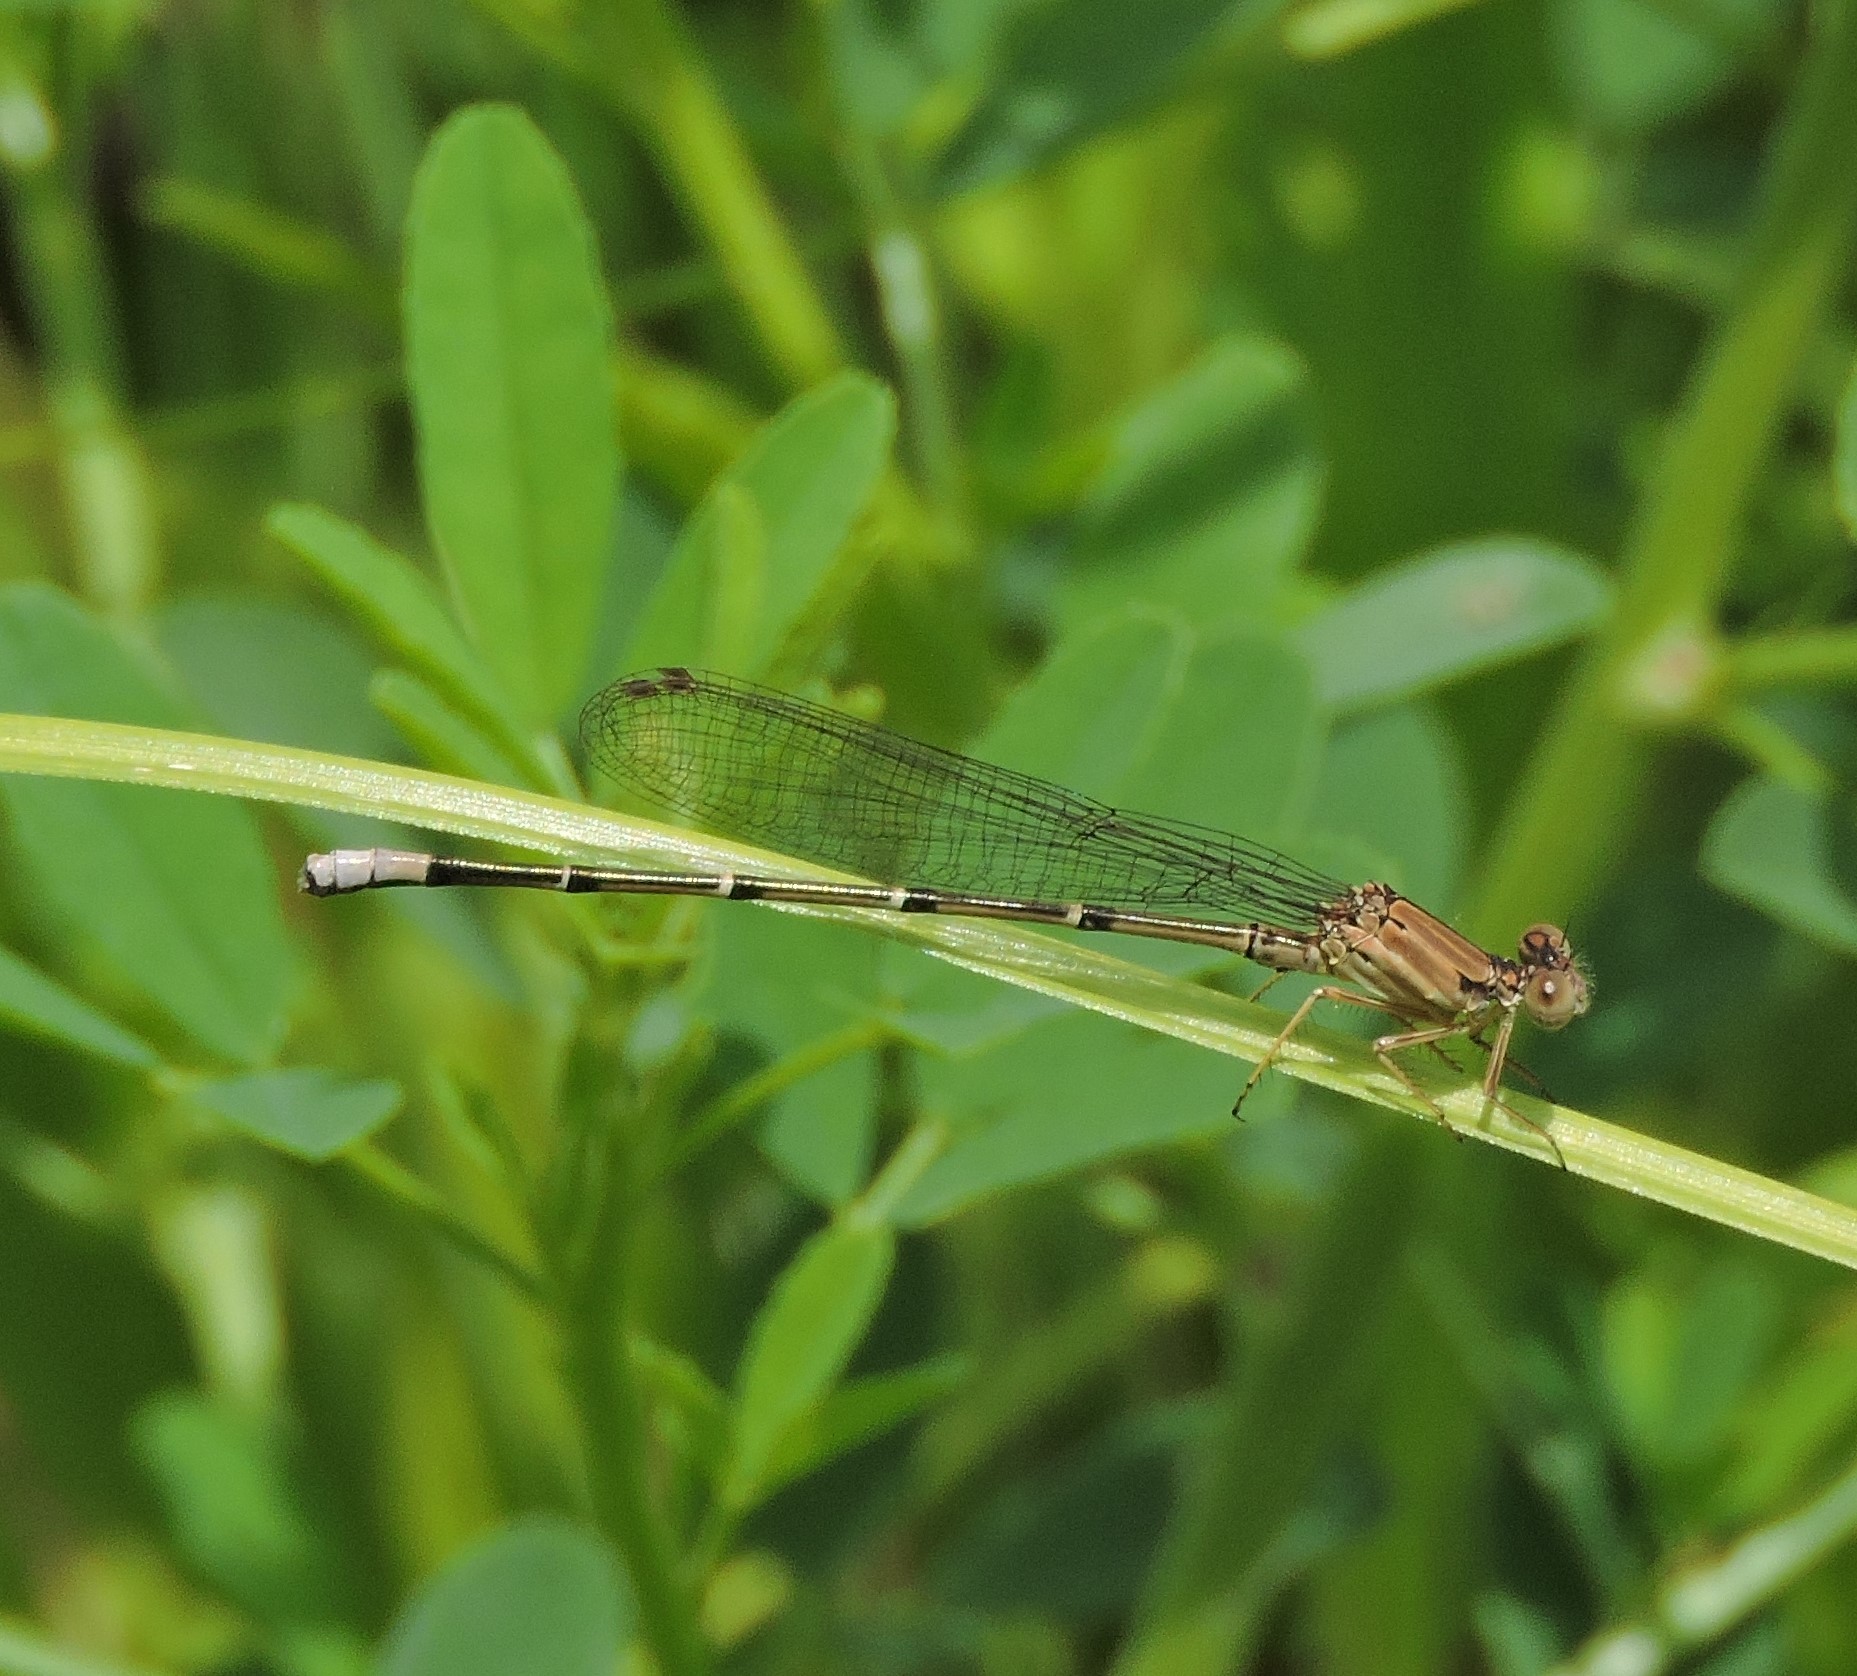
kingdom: Animalia
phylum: Arthropoda
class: Insecta
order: Odonata
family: Coenagrionidae
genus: Argia
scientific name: Argia apicalis
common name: Blue-fronted dancer
